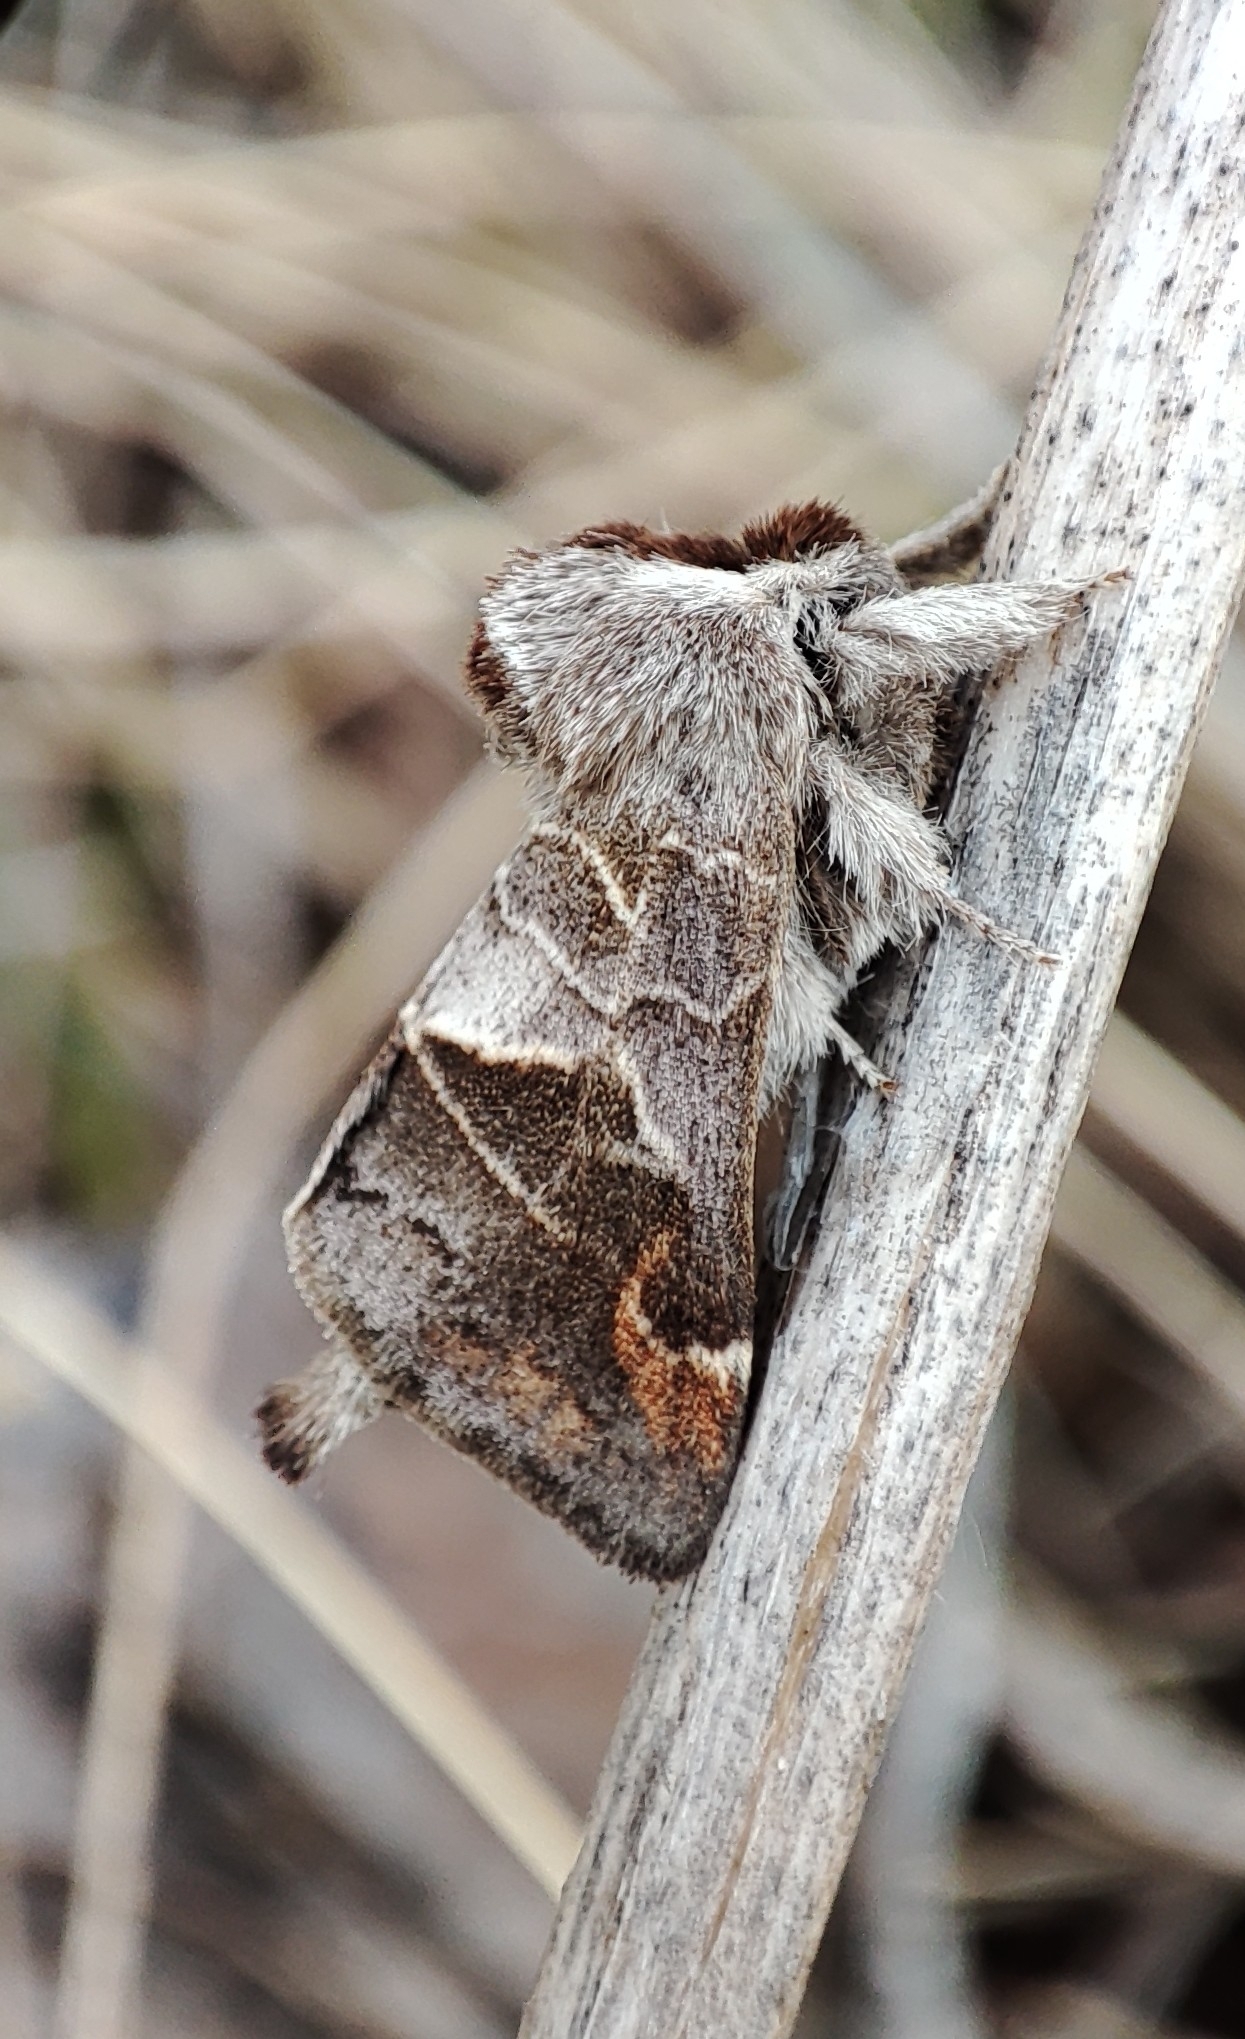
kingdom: Animalia
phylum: Arthropoda
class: Insecta
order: Lepidoptera
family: Notodontidae
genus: Clostera
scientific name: Clostera pigra
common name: Small chocolate-tip
